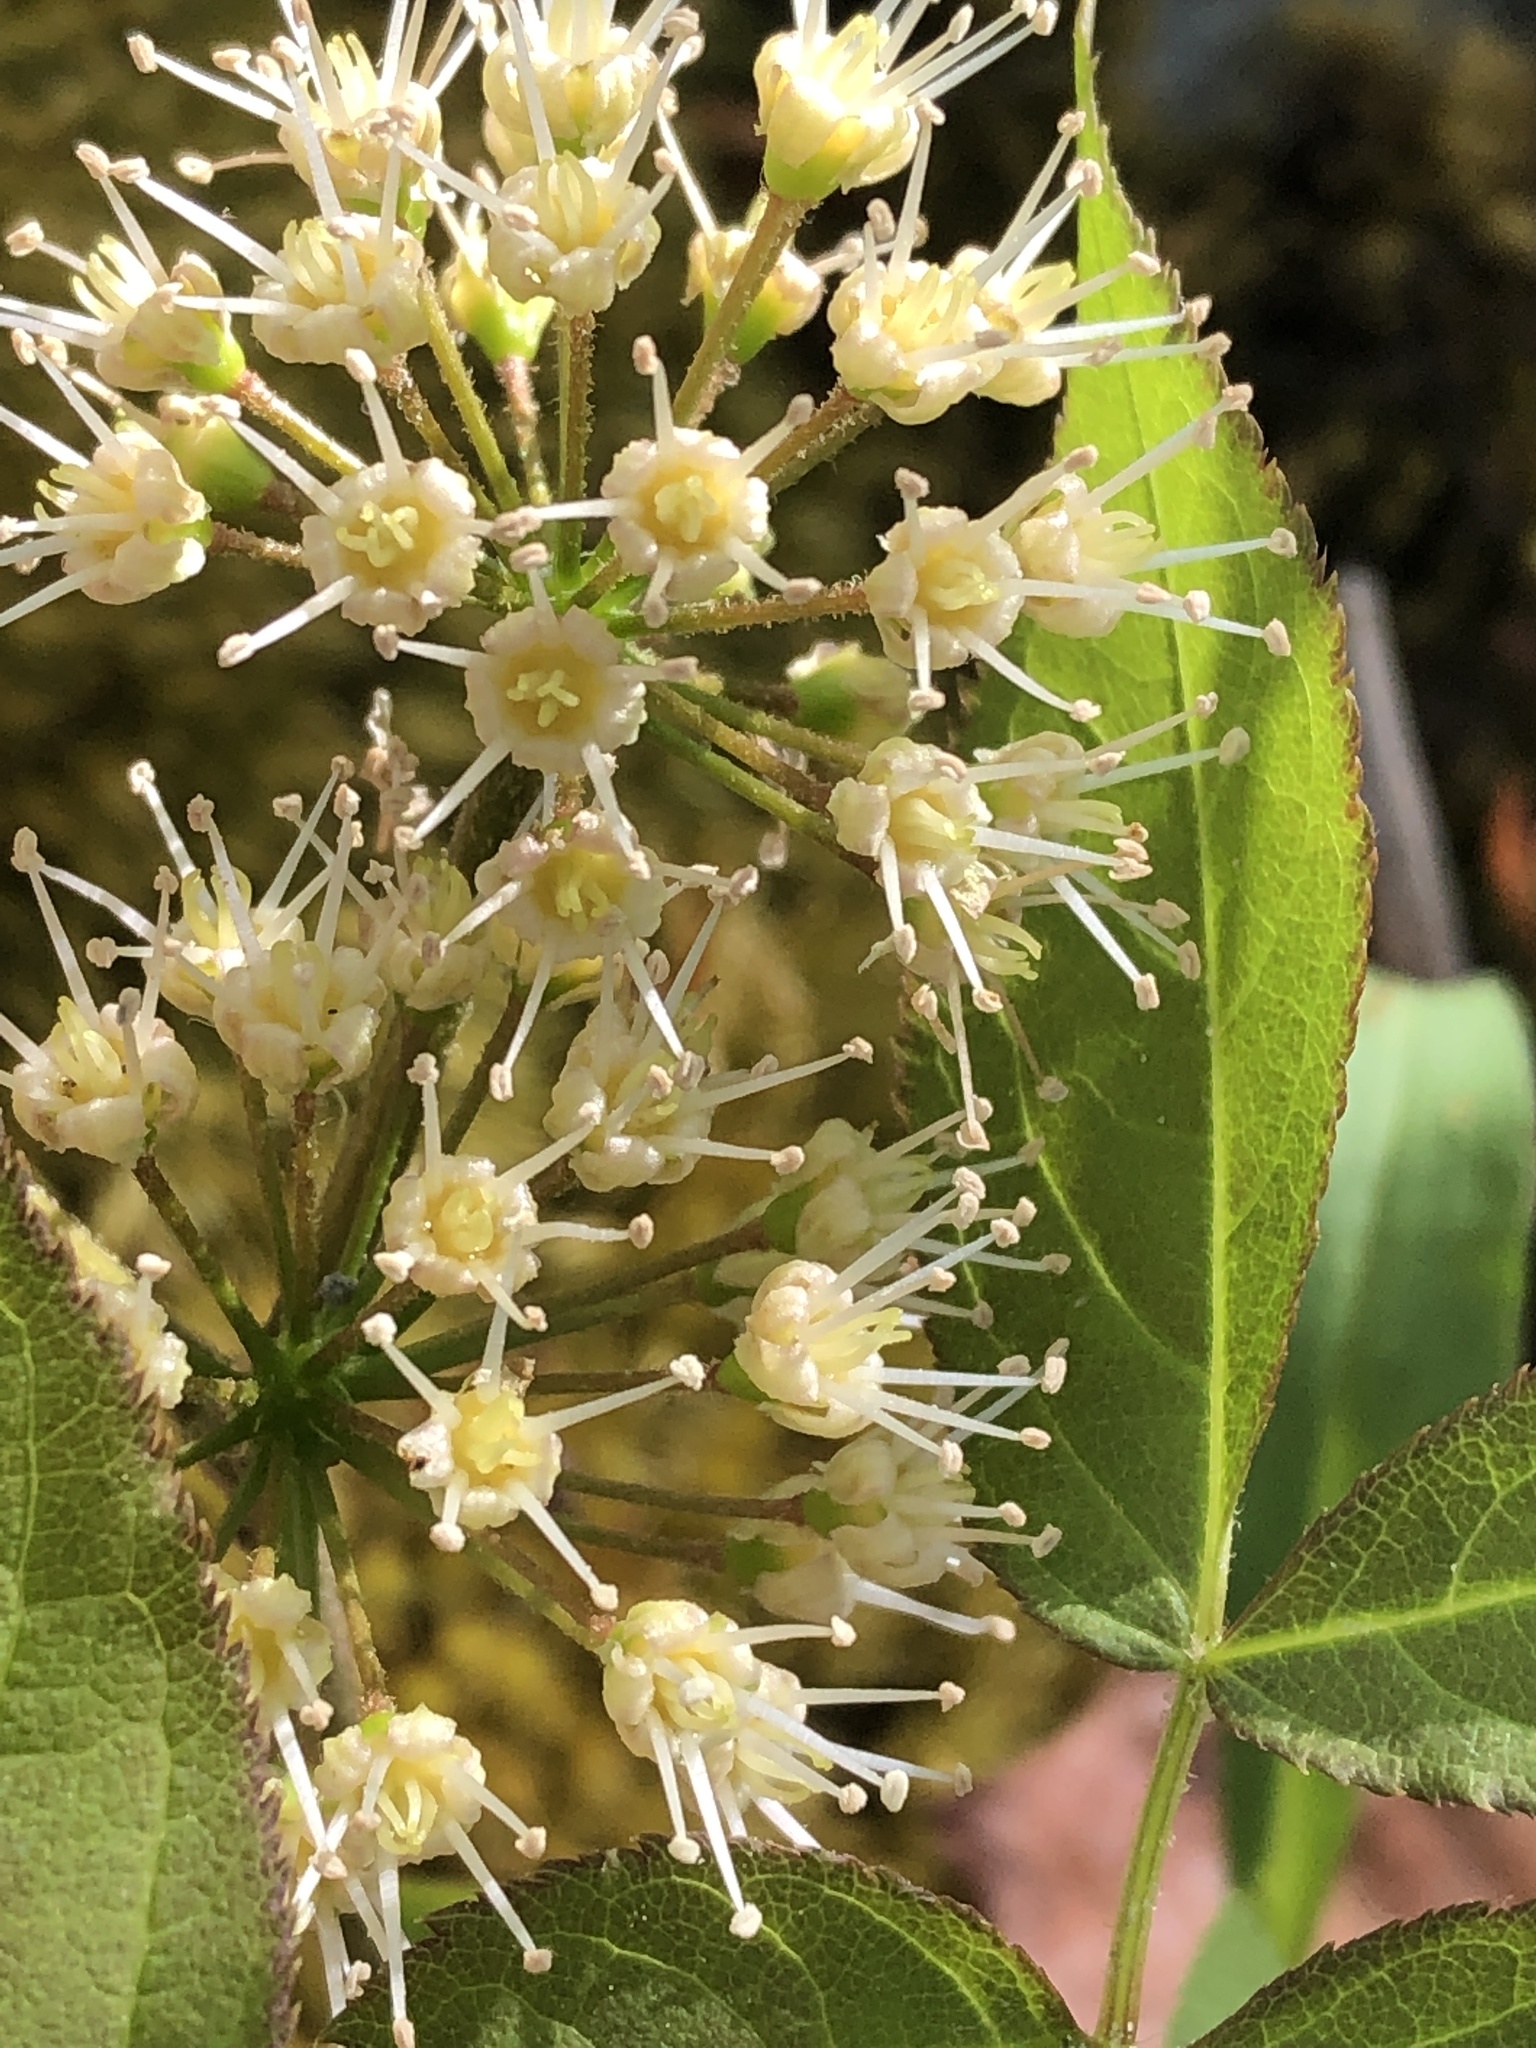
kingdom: Plantae
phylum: Tracheophyta
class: Magnoliopsida
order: Apiales
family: Araliaceae
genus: Aralia
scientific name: Aralia nudicaulis
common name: Wild sarsaparilla
